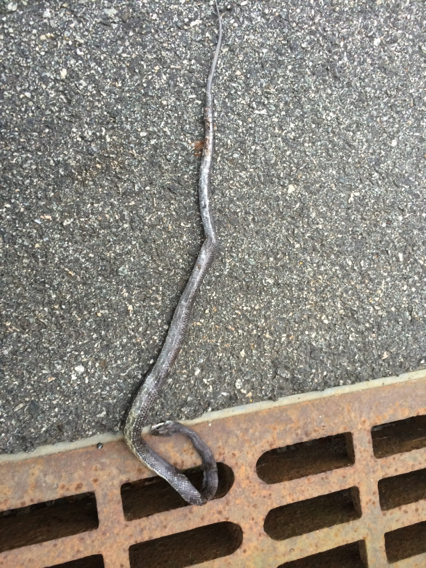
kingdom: Animalia
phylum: Chordata
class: Squamata
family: Colubridae
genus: Pantherophis
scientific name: Pantherophis alleghaniensis
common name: Eastern rat snake
